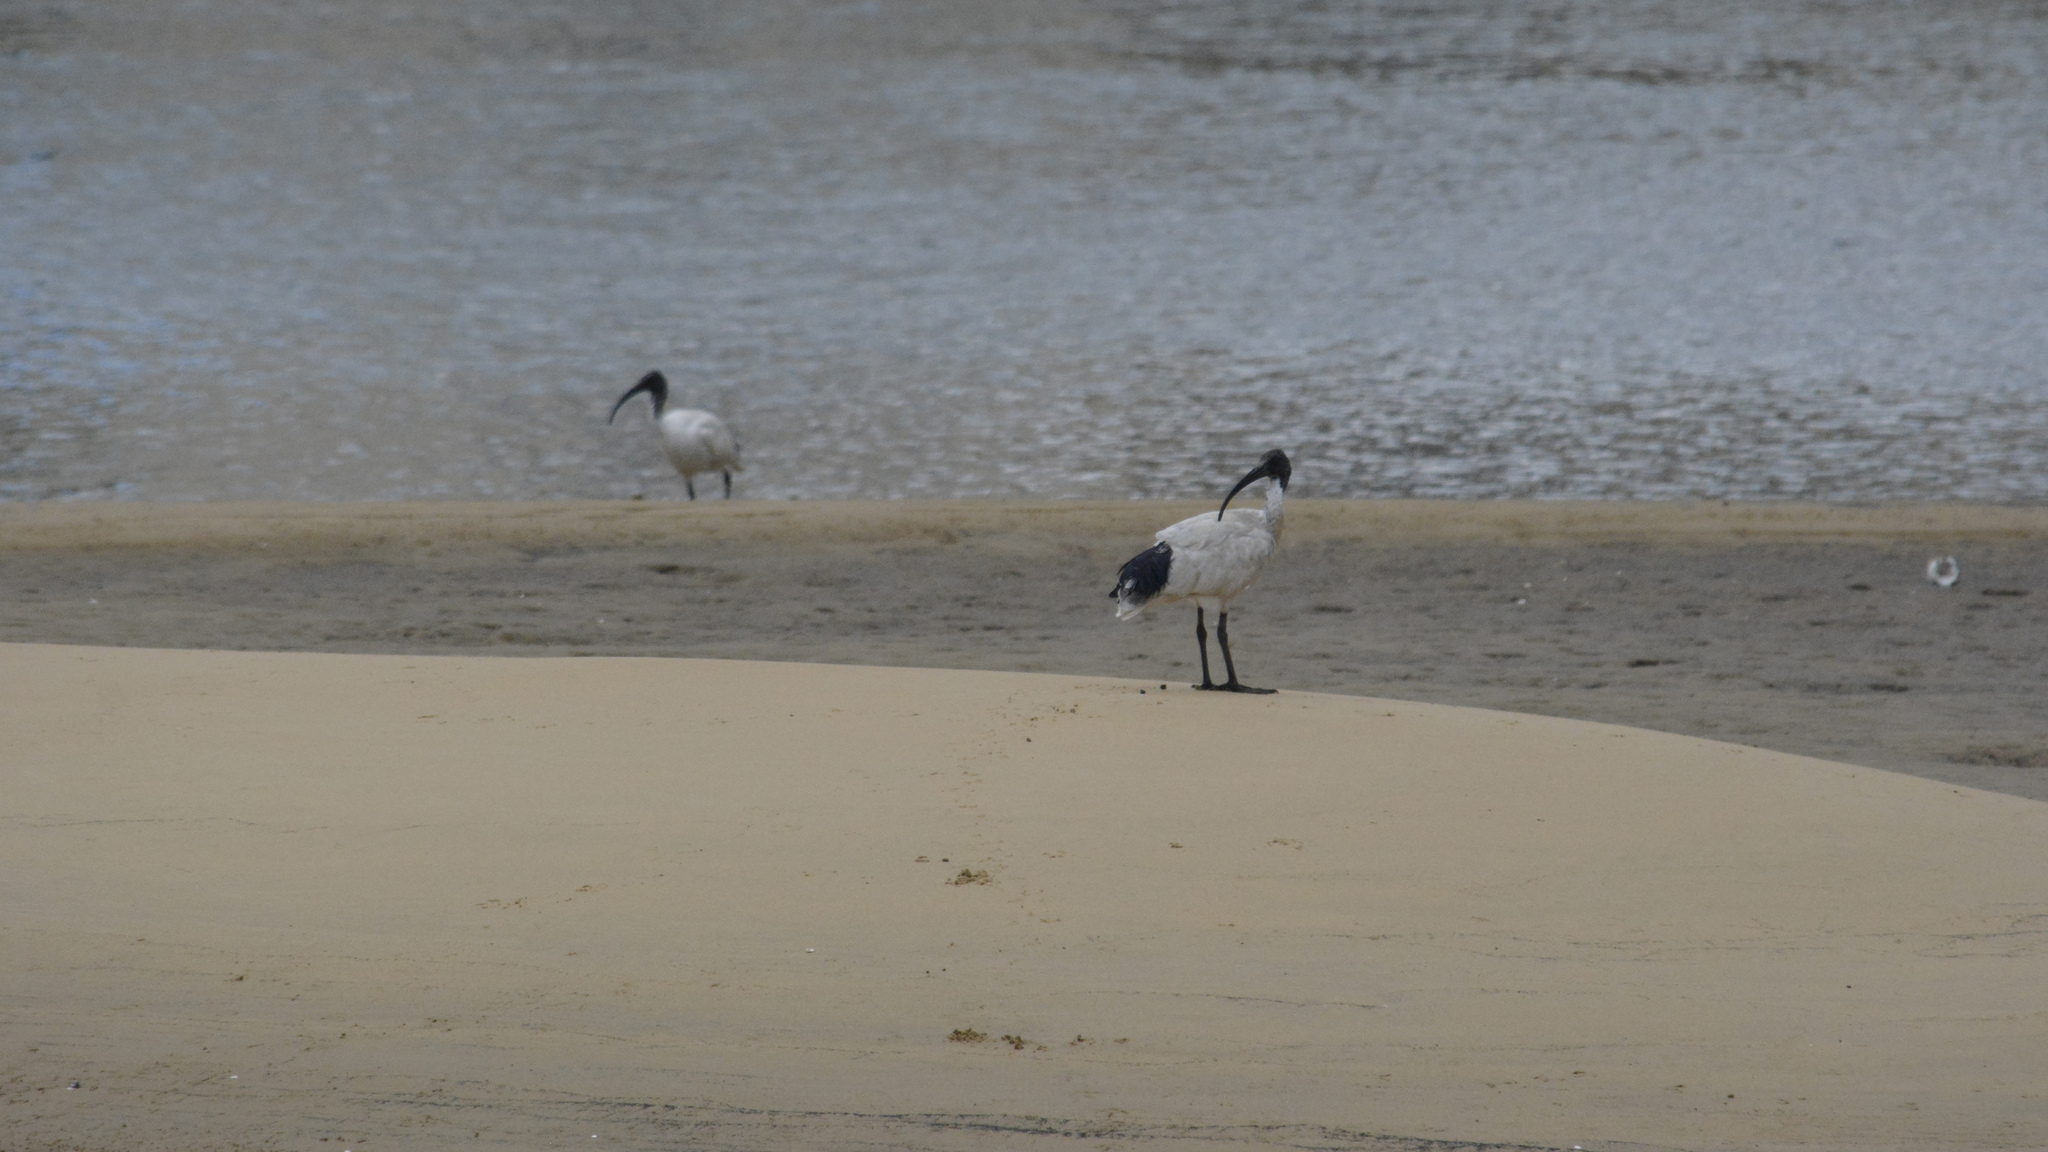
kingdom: Animalia
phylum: Chordata
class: Aves
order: Pelecaniformes
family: Threskiornithidae
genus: Threskiornis
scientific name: Threskiornis molucca
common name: Australian white ibis
